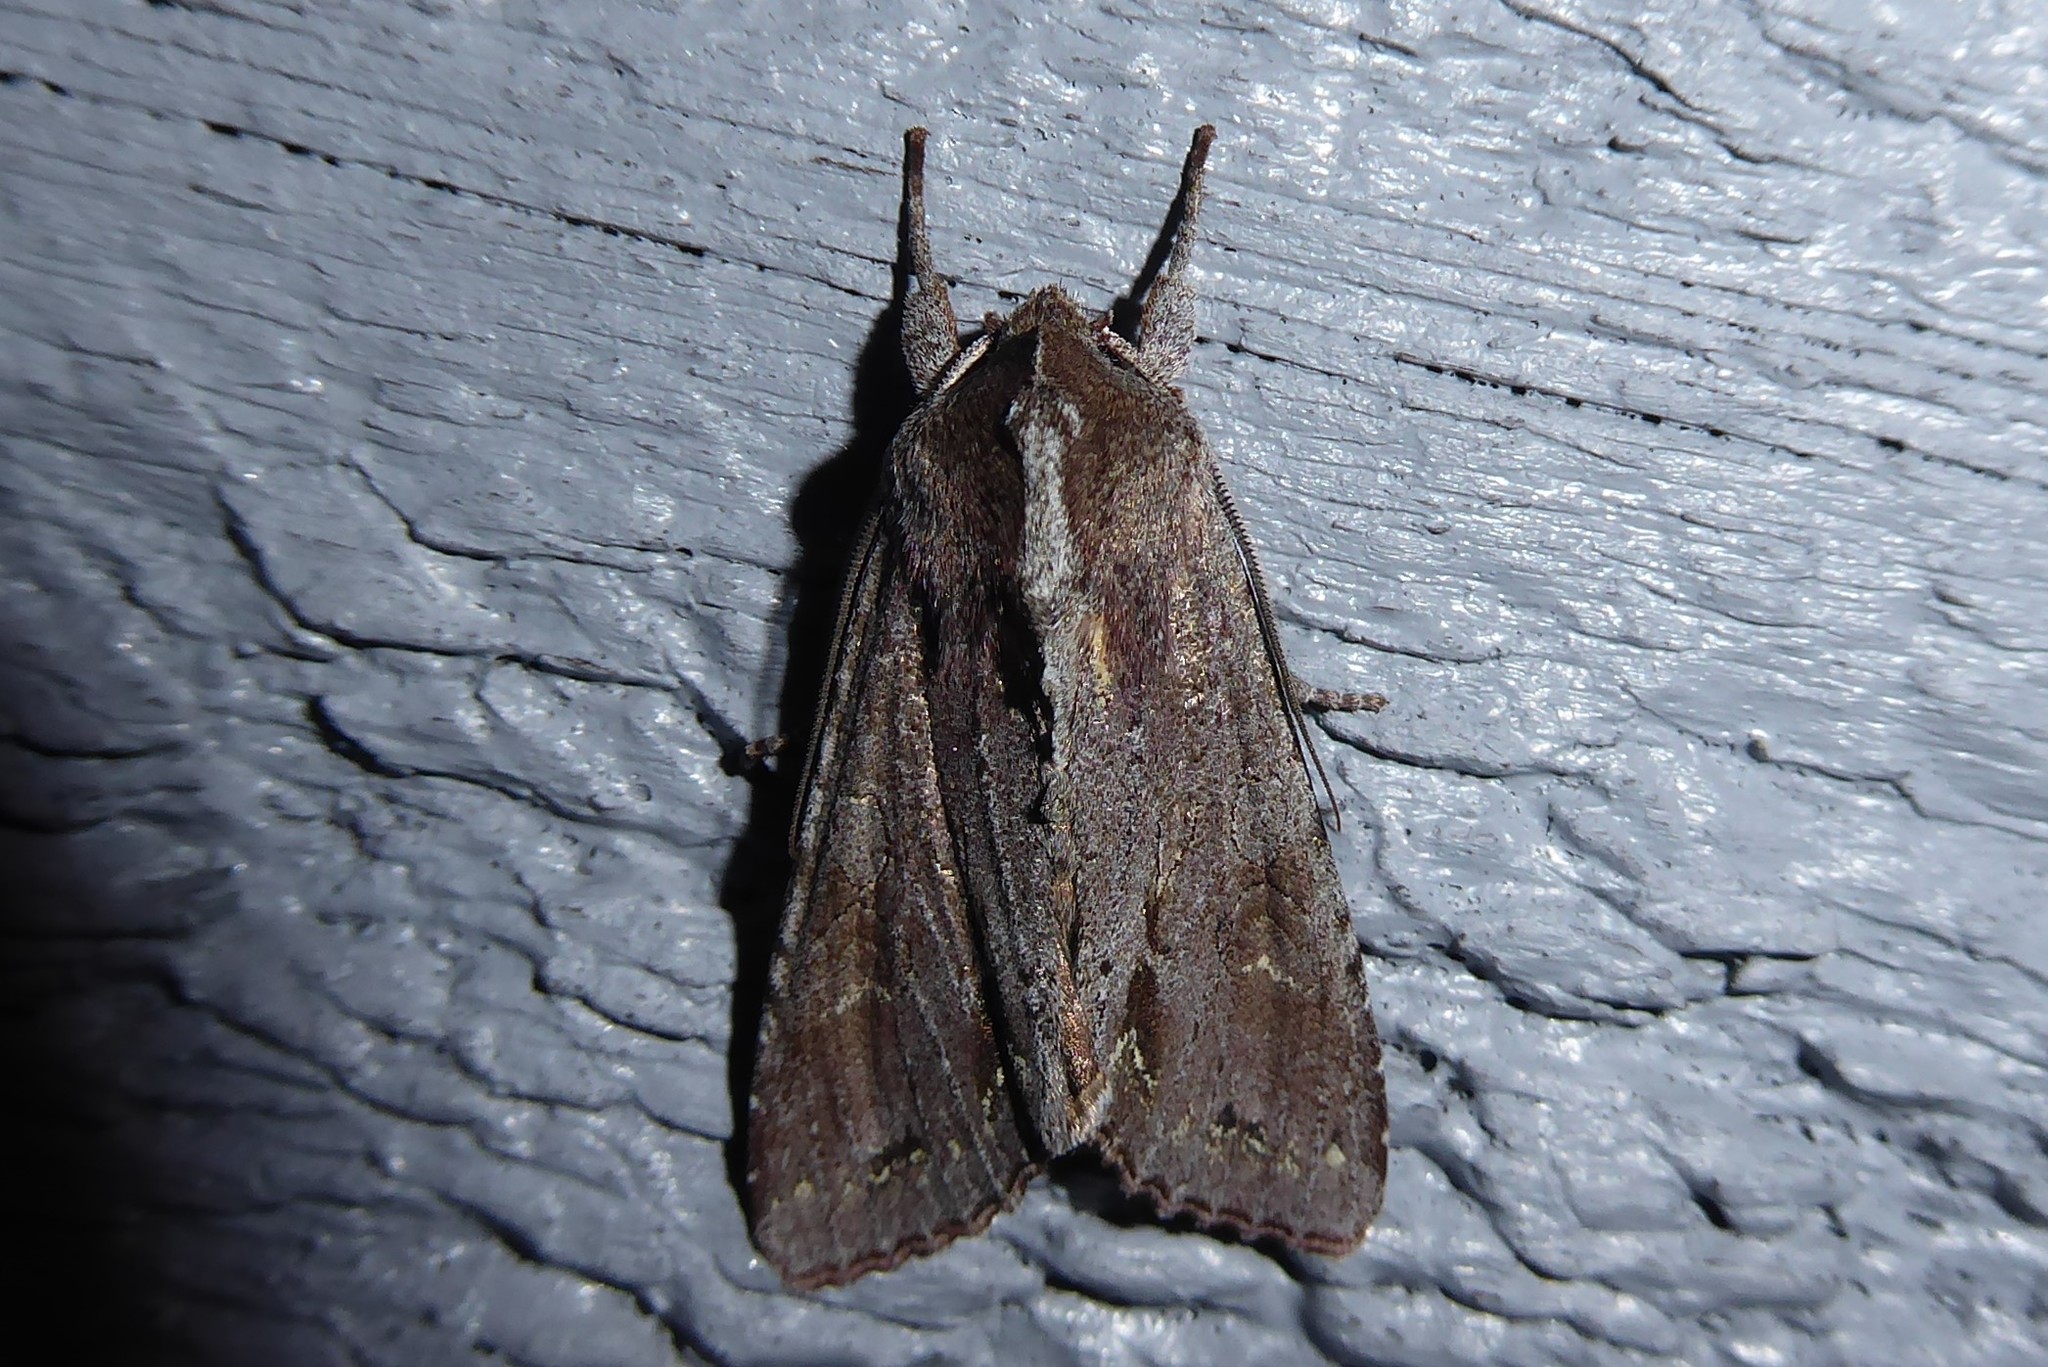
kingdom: Animalia
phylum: Arthropoda
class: Insecta
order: Lepidoptera
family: Noctuidae
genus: Ichneutica
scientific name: Ichneutica
